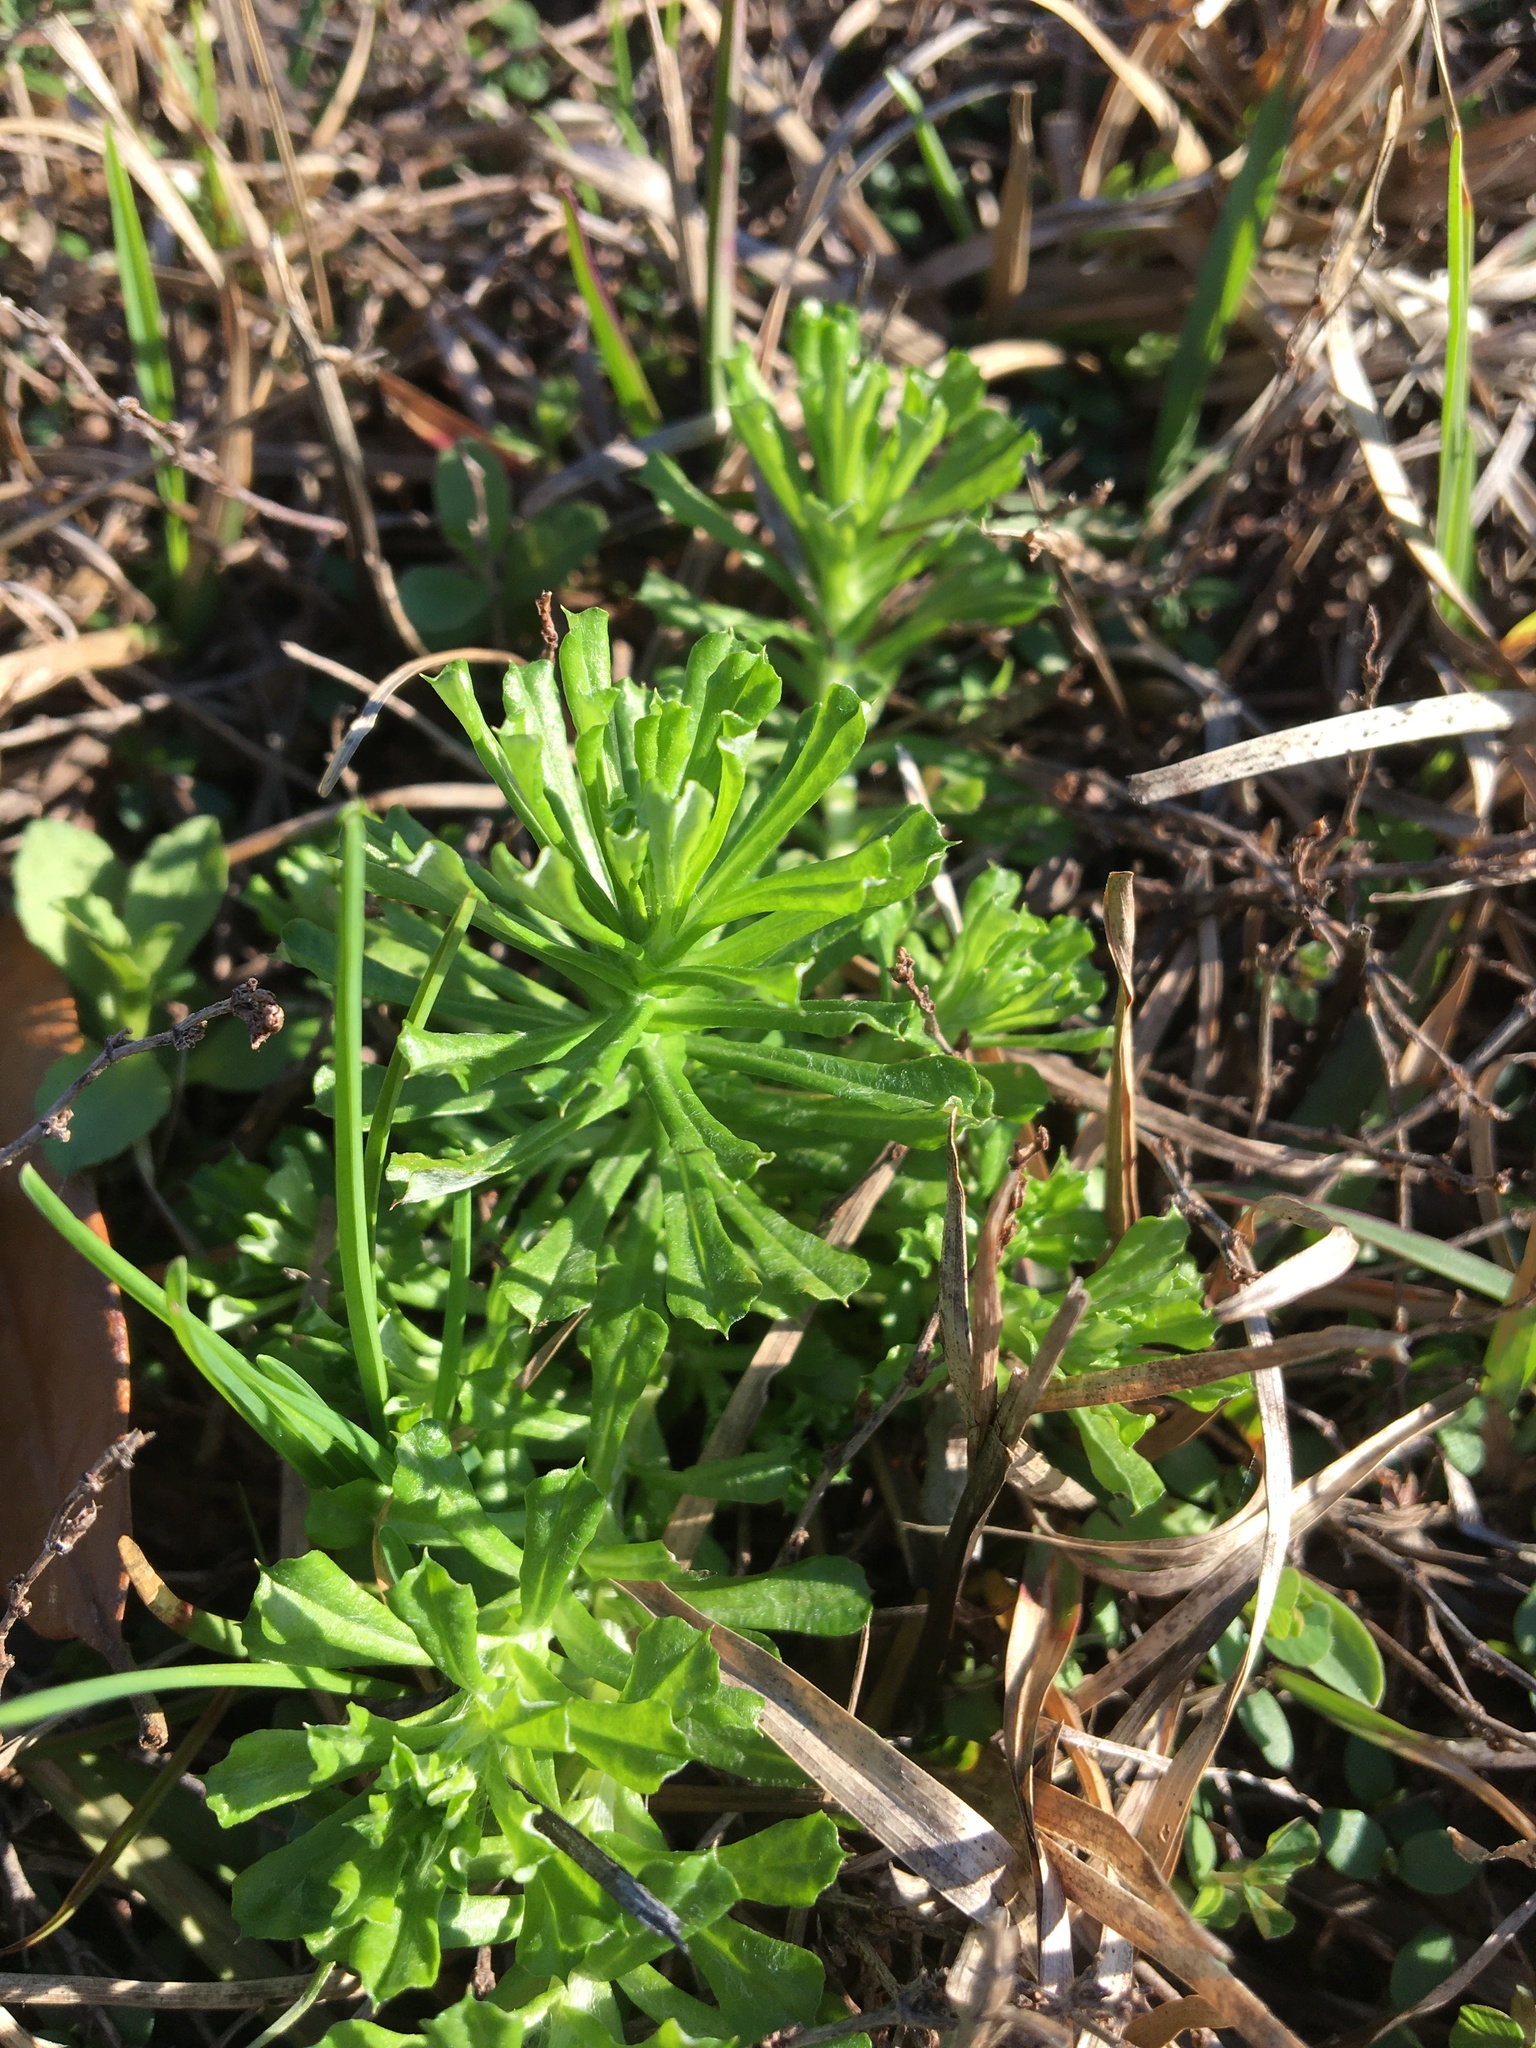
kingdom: Plantae
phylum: Tracheophyta
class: Magnoliopsida
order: Asterales
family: Asteraceae
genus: Facelis
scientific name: Facelis retusa
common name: Annual trampweed
